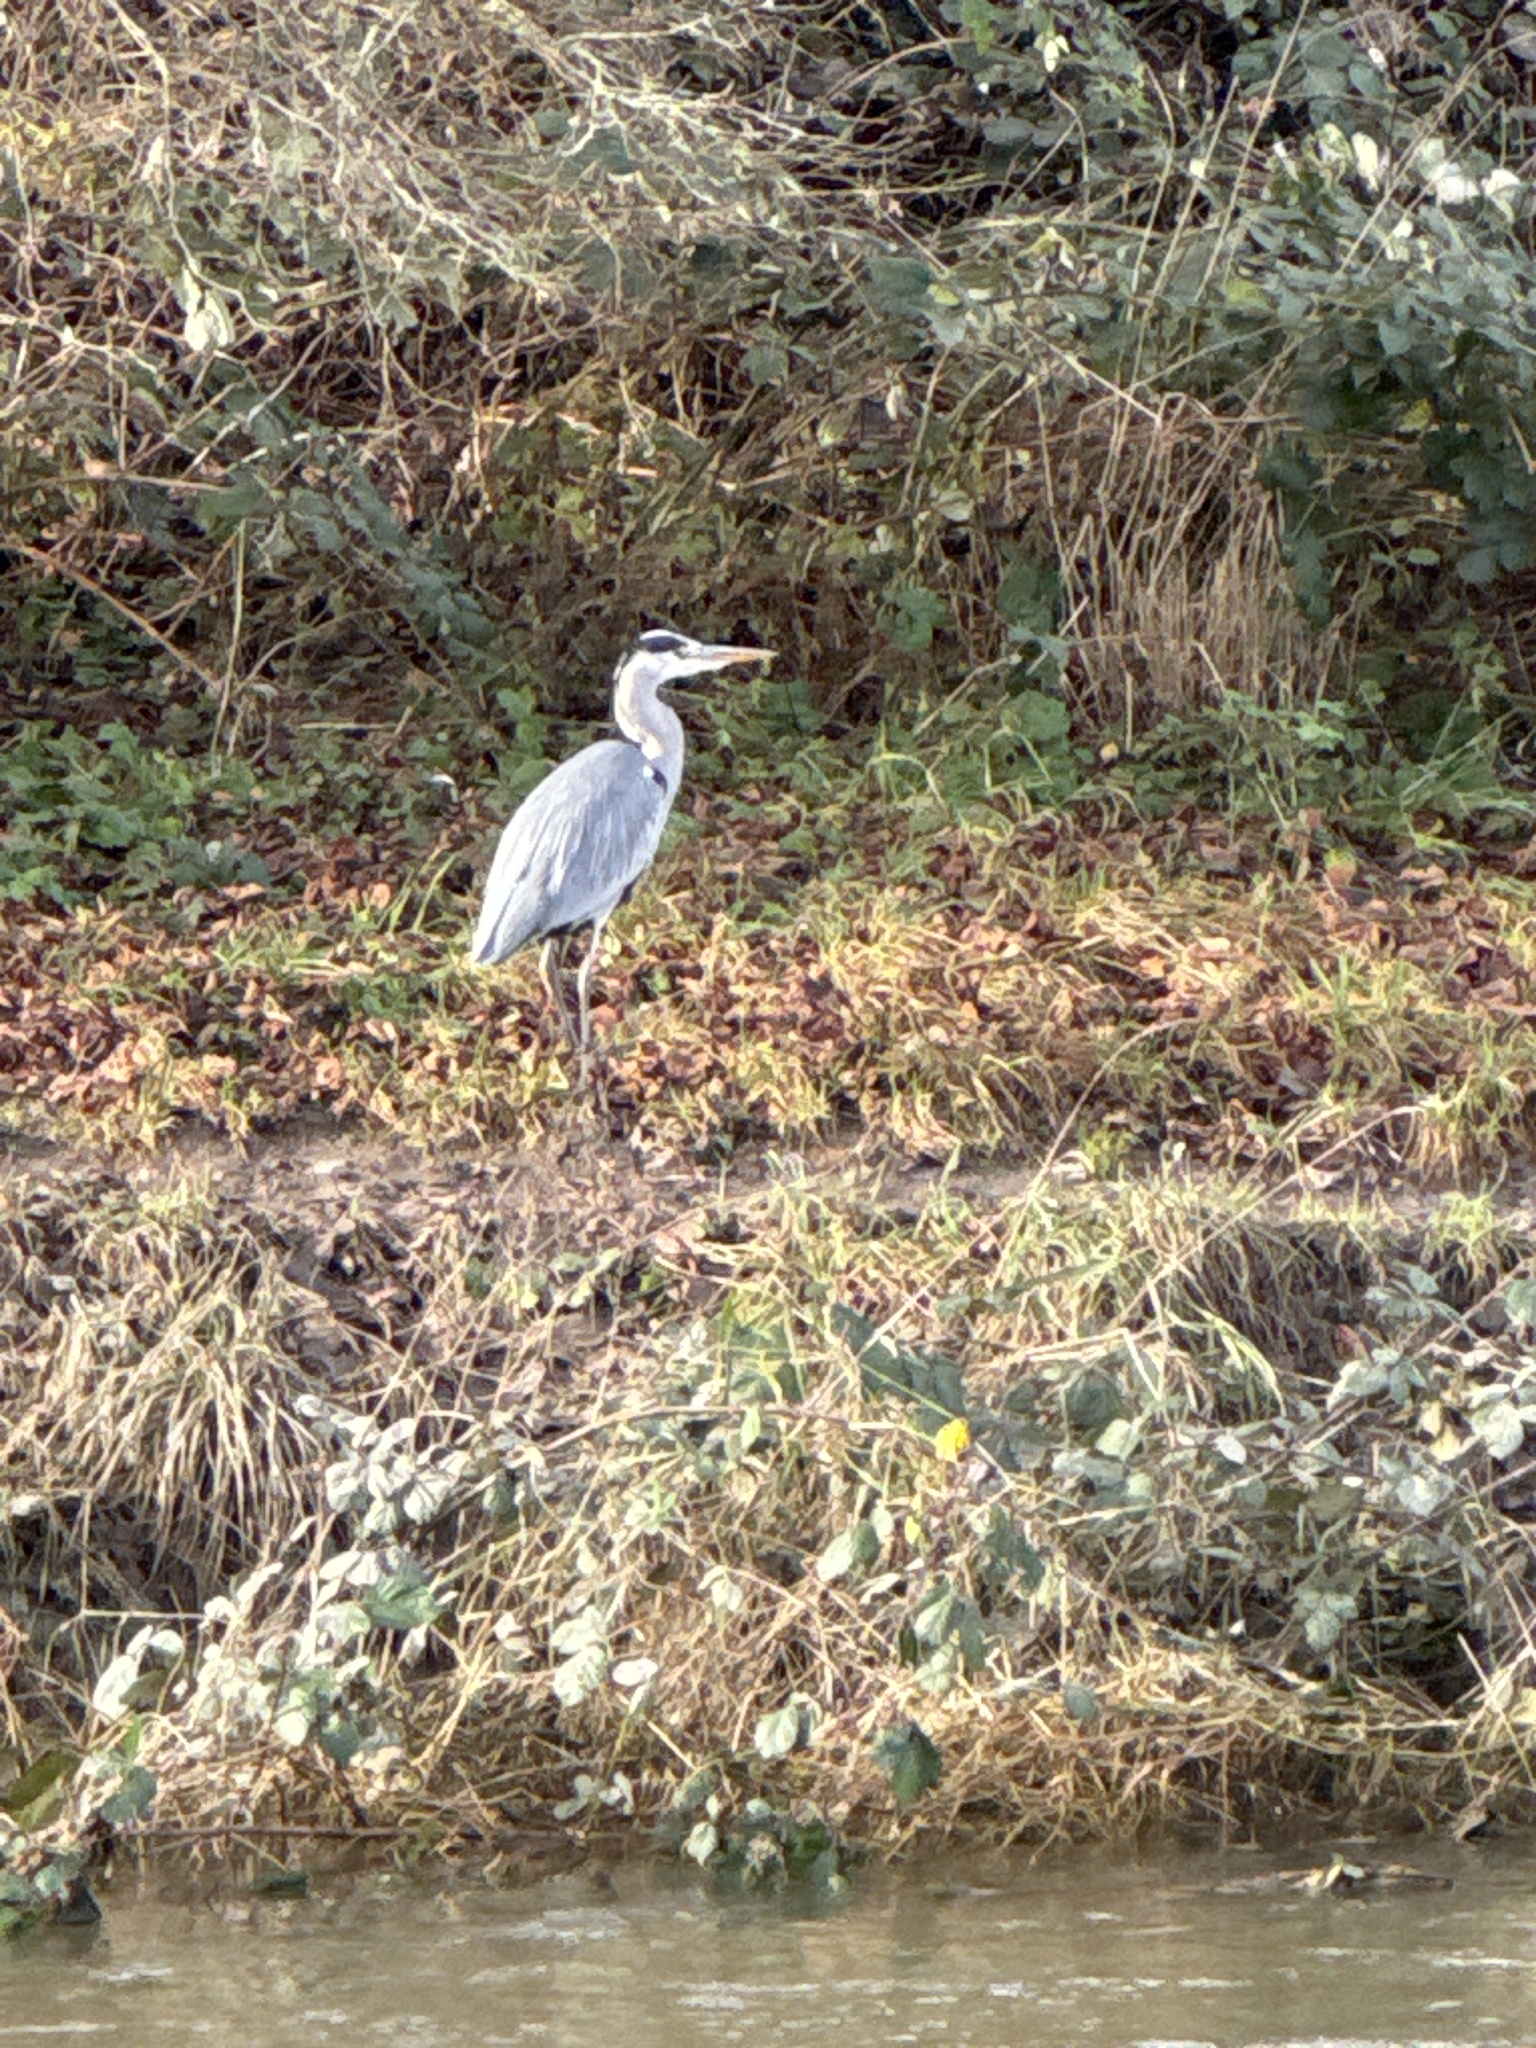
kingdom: Animalia
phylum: Chordata
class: Aves
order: Pelecaniformes
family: Ardeidae
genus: Ardea
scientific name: Ardea cinerea
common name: Grey heron
